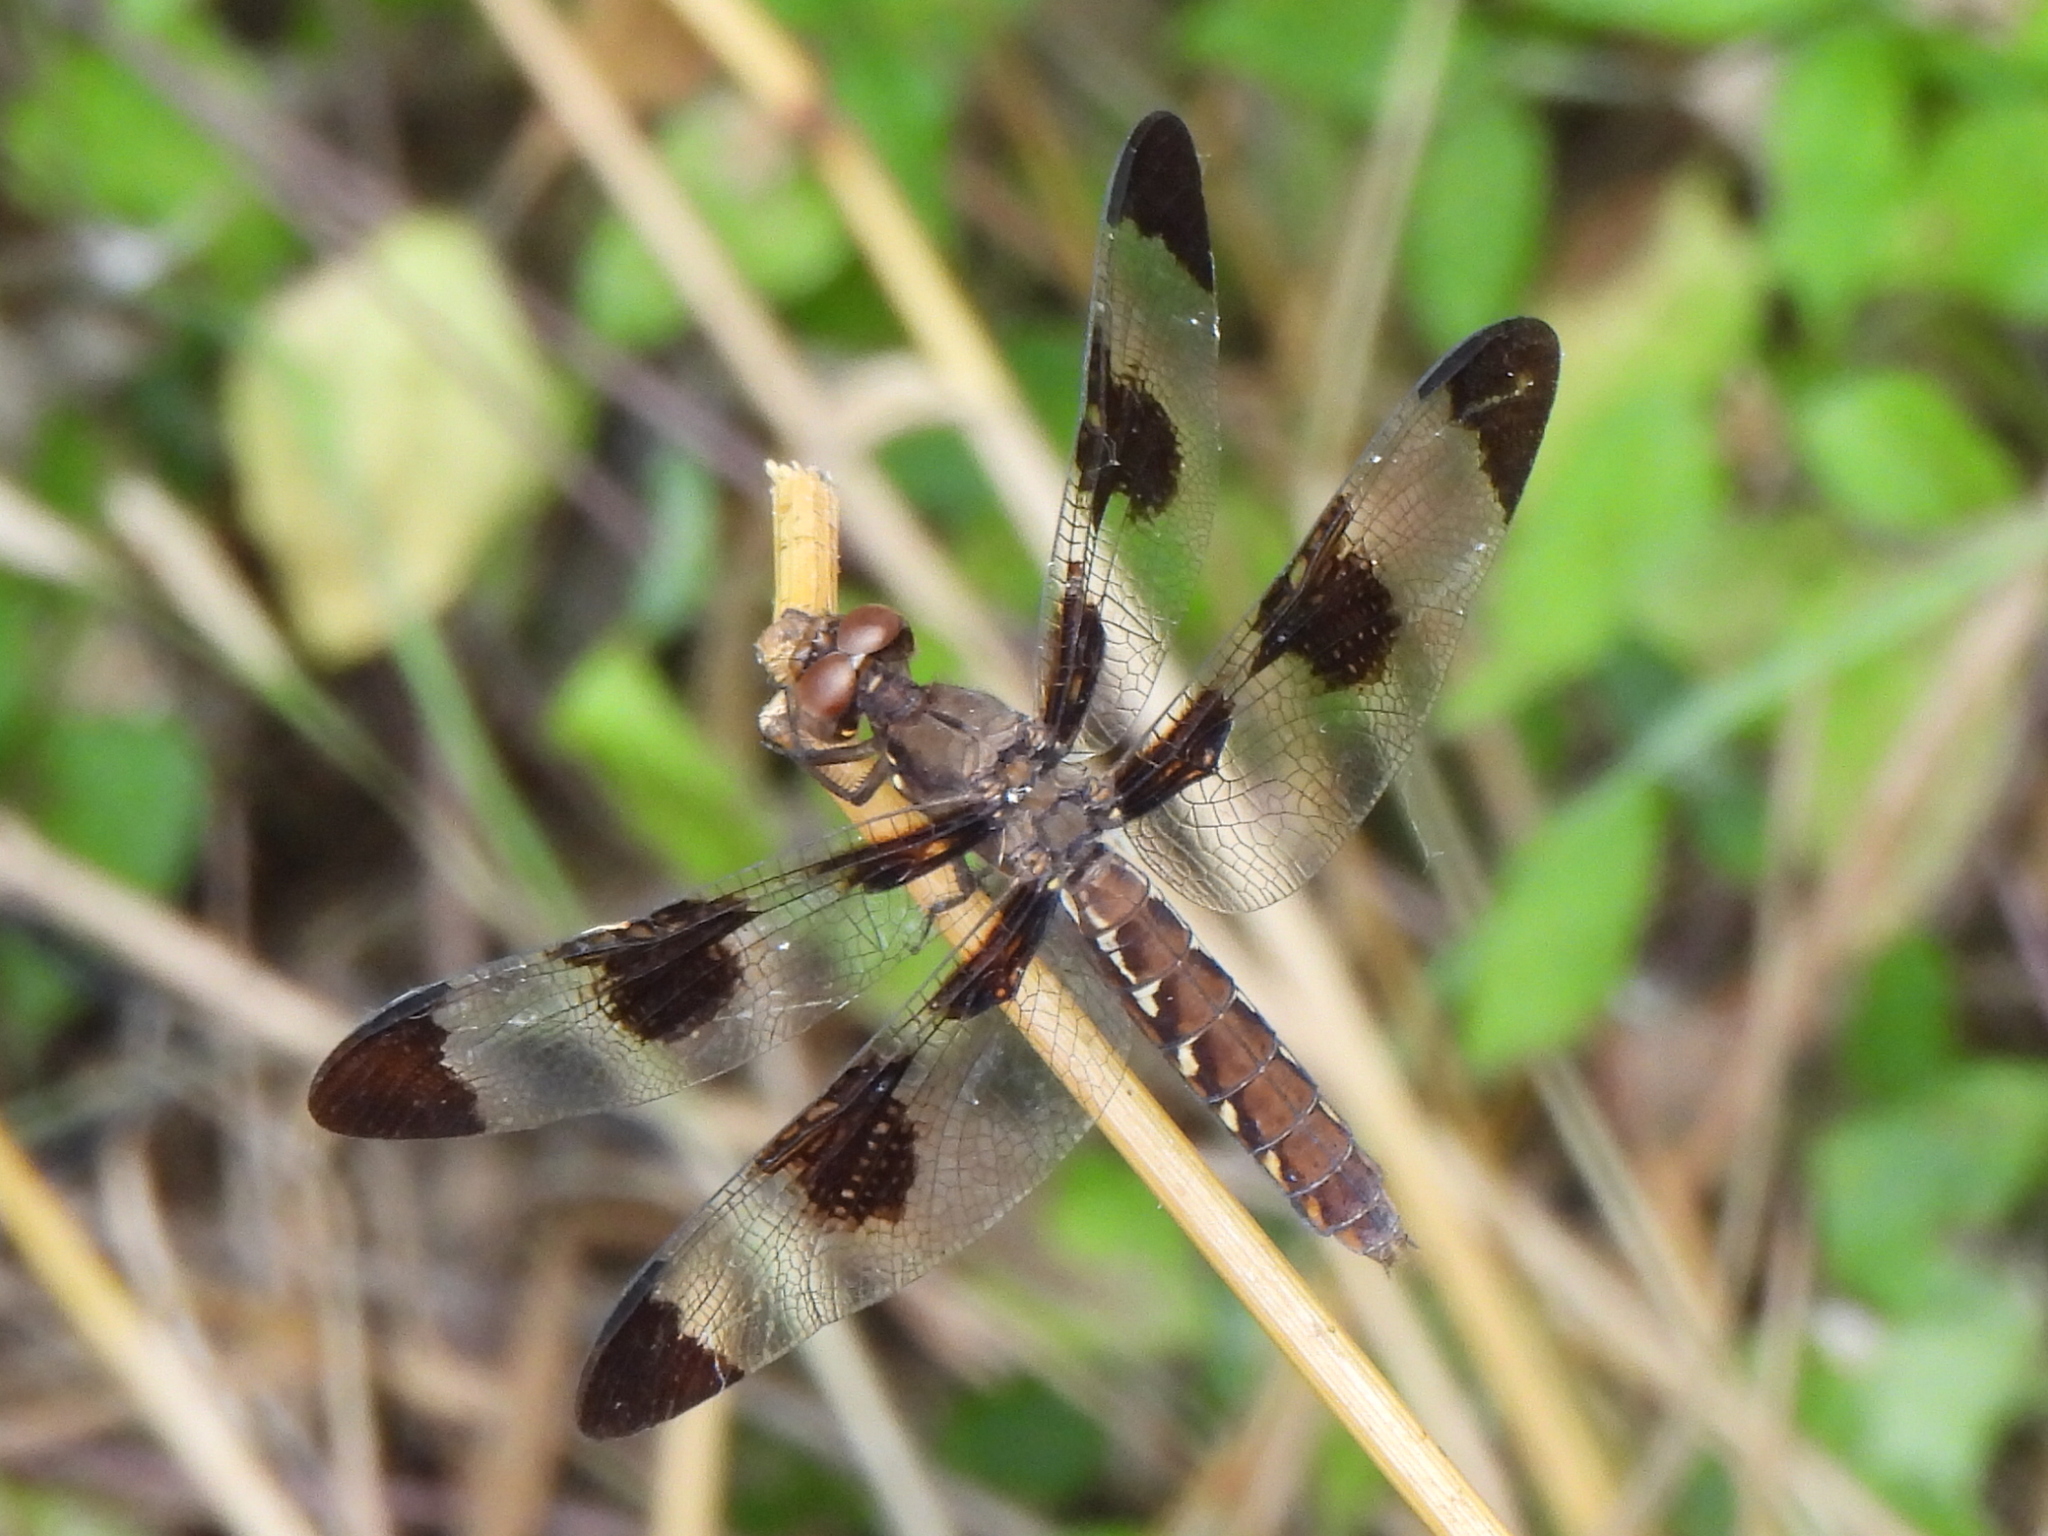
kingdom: Animalia
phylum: Arthropoda
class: Insecta
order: Odonata
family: Libellulidae
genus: Plathemis
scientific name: Plathemis lydia
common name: Common whitetail
